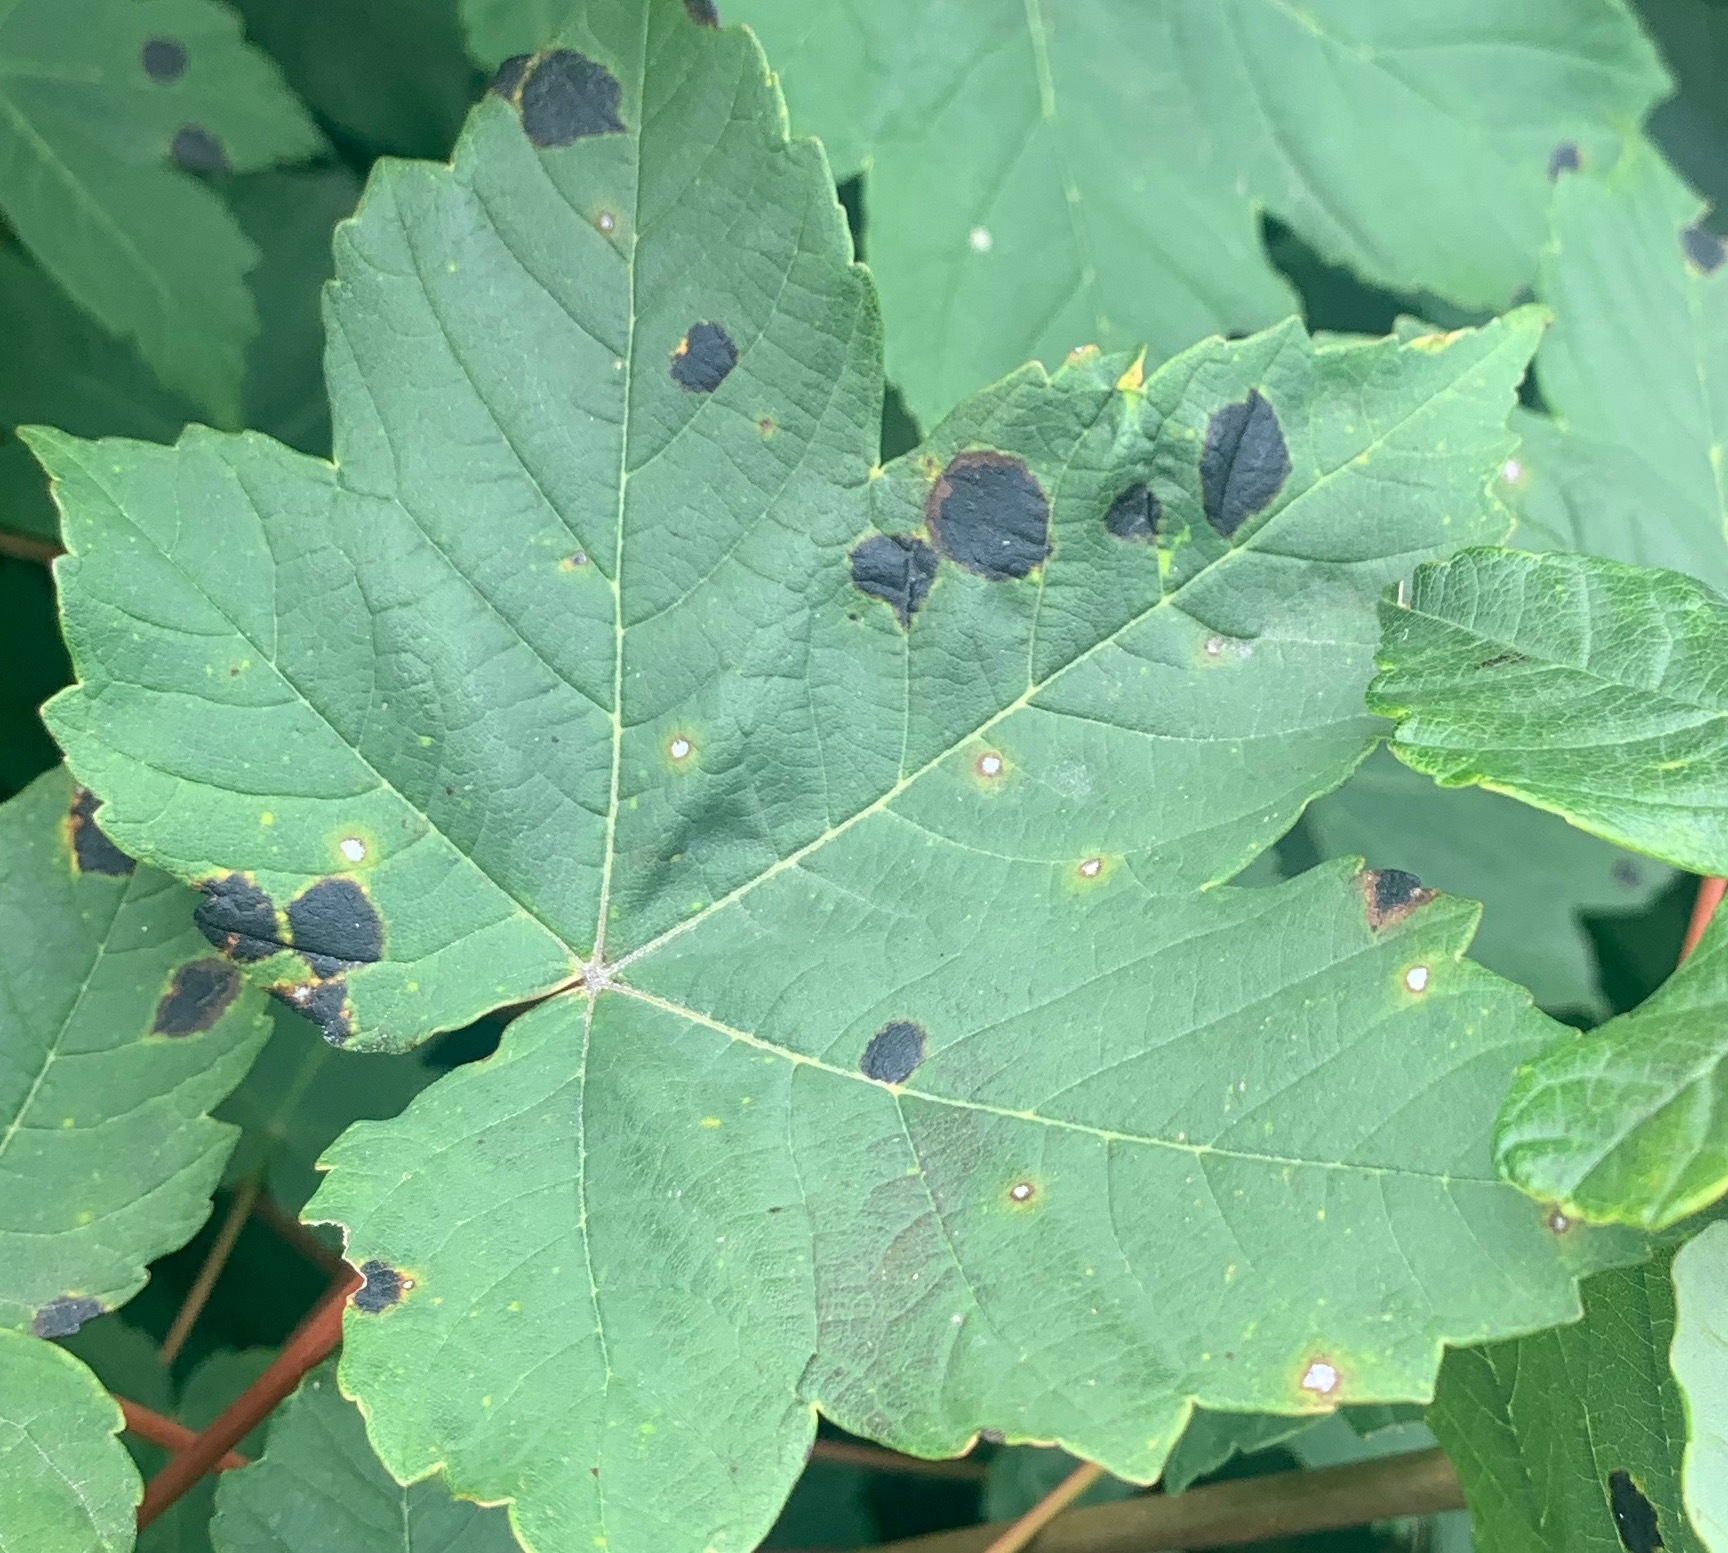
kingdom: Fungi
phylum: Ascomycota
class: Leotiomycetes
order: Rhytismatales
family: Rhytismataceae
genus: Rhytisma
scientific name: Rhytisma acerinum
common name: European tar spot
